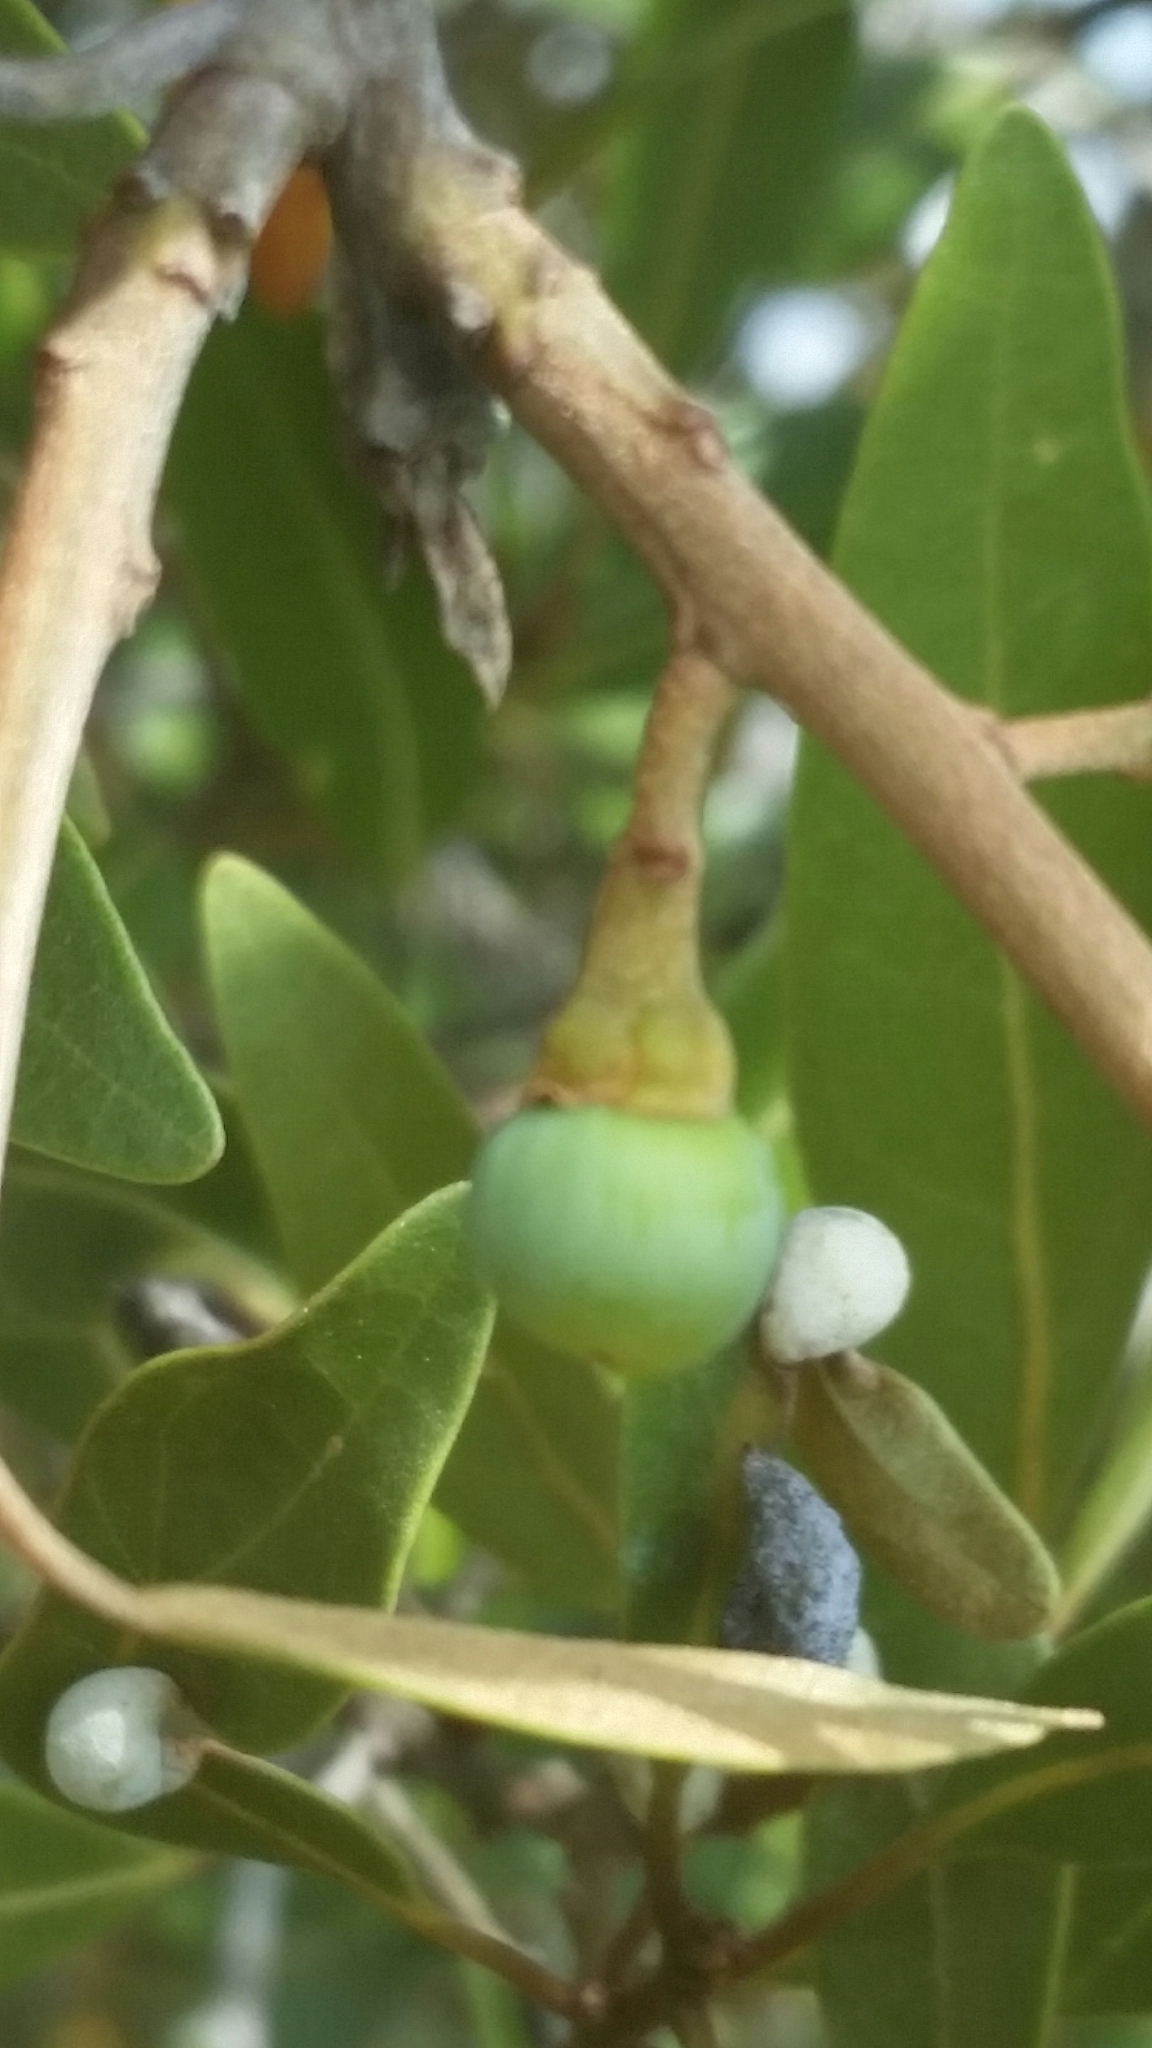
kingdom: Plantae
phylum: Tracheophyta
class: Magnoliopsida
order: Laurales
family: Lauraceae
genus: Persea
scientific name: Persea humilis
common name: Silkbay
